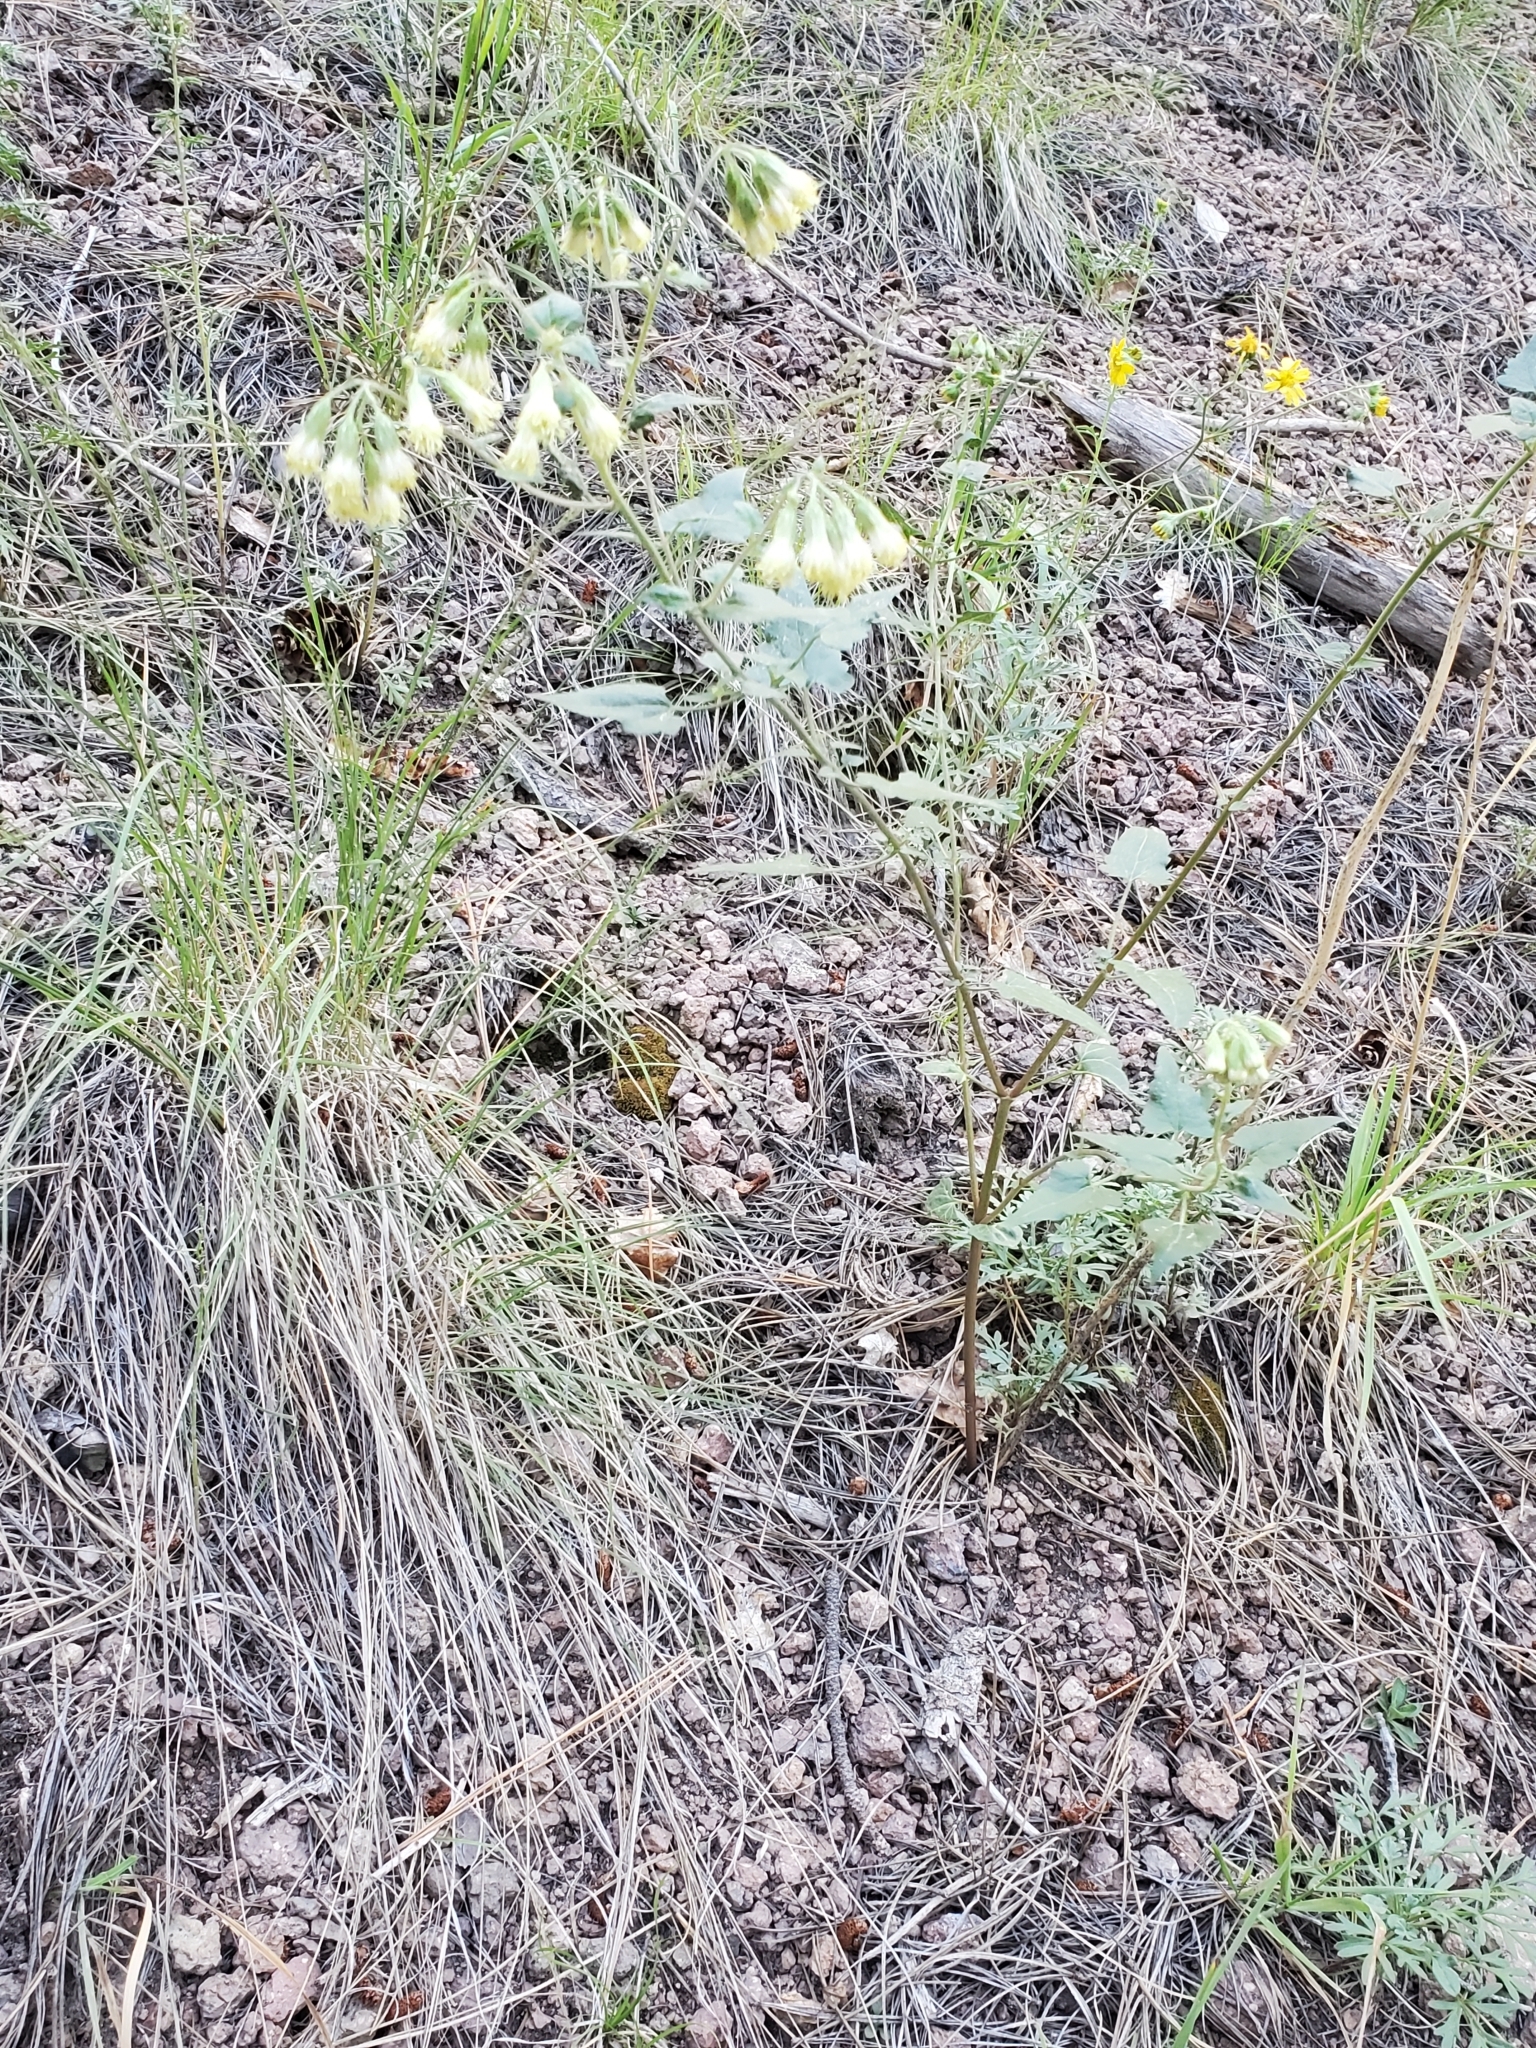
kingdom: Plantae
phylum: Tracheophyta
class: Magnoliopsida
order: Asterales
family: Asteraceae
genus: Brickellia
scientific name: Brickellia grandiflora
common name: Large-flowered brickellia
